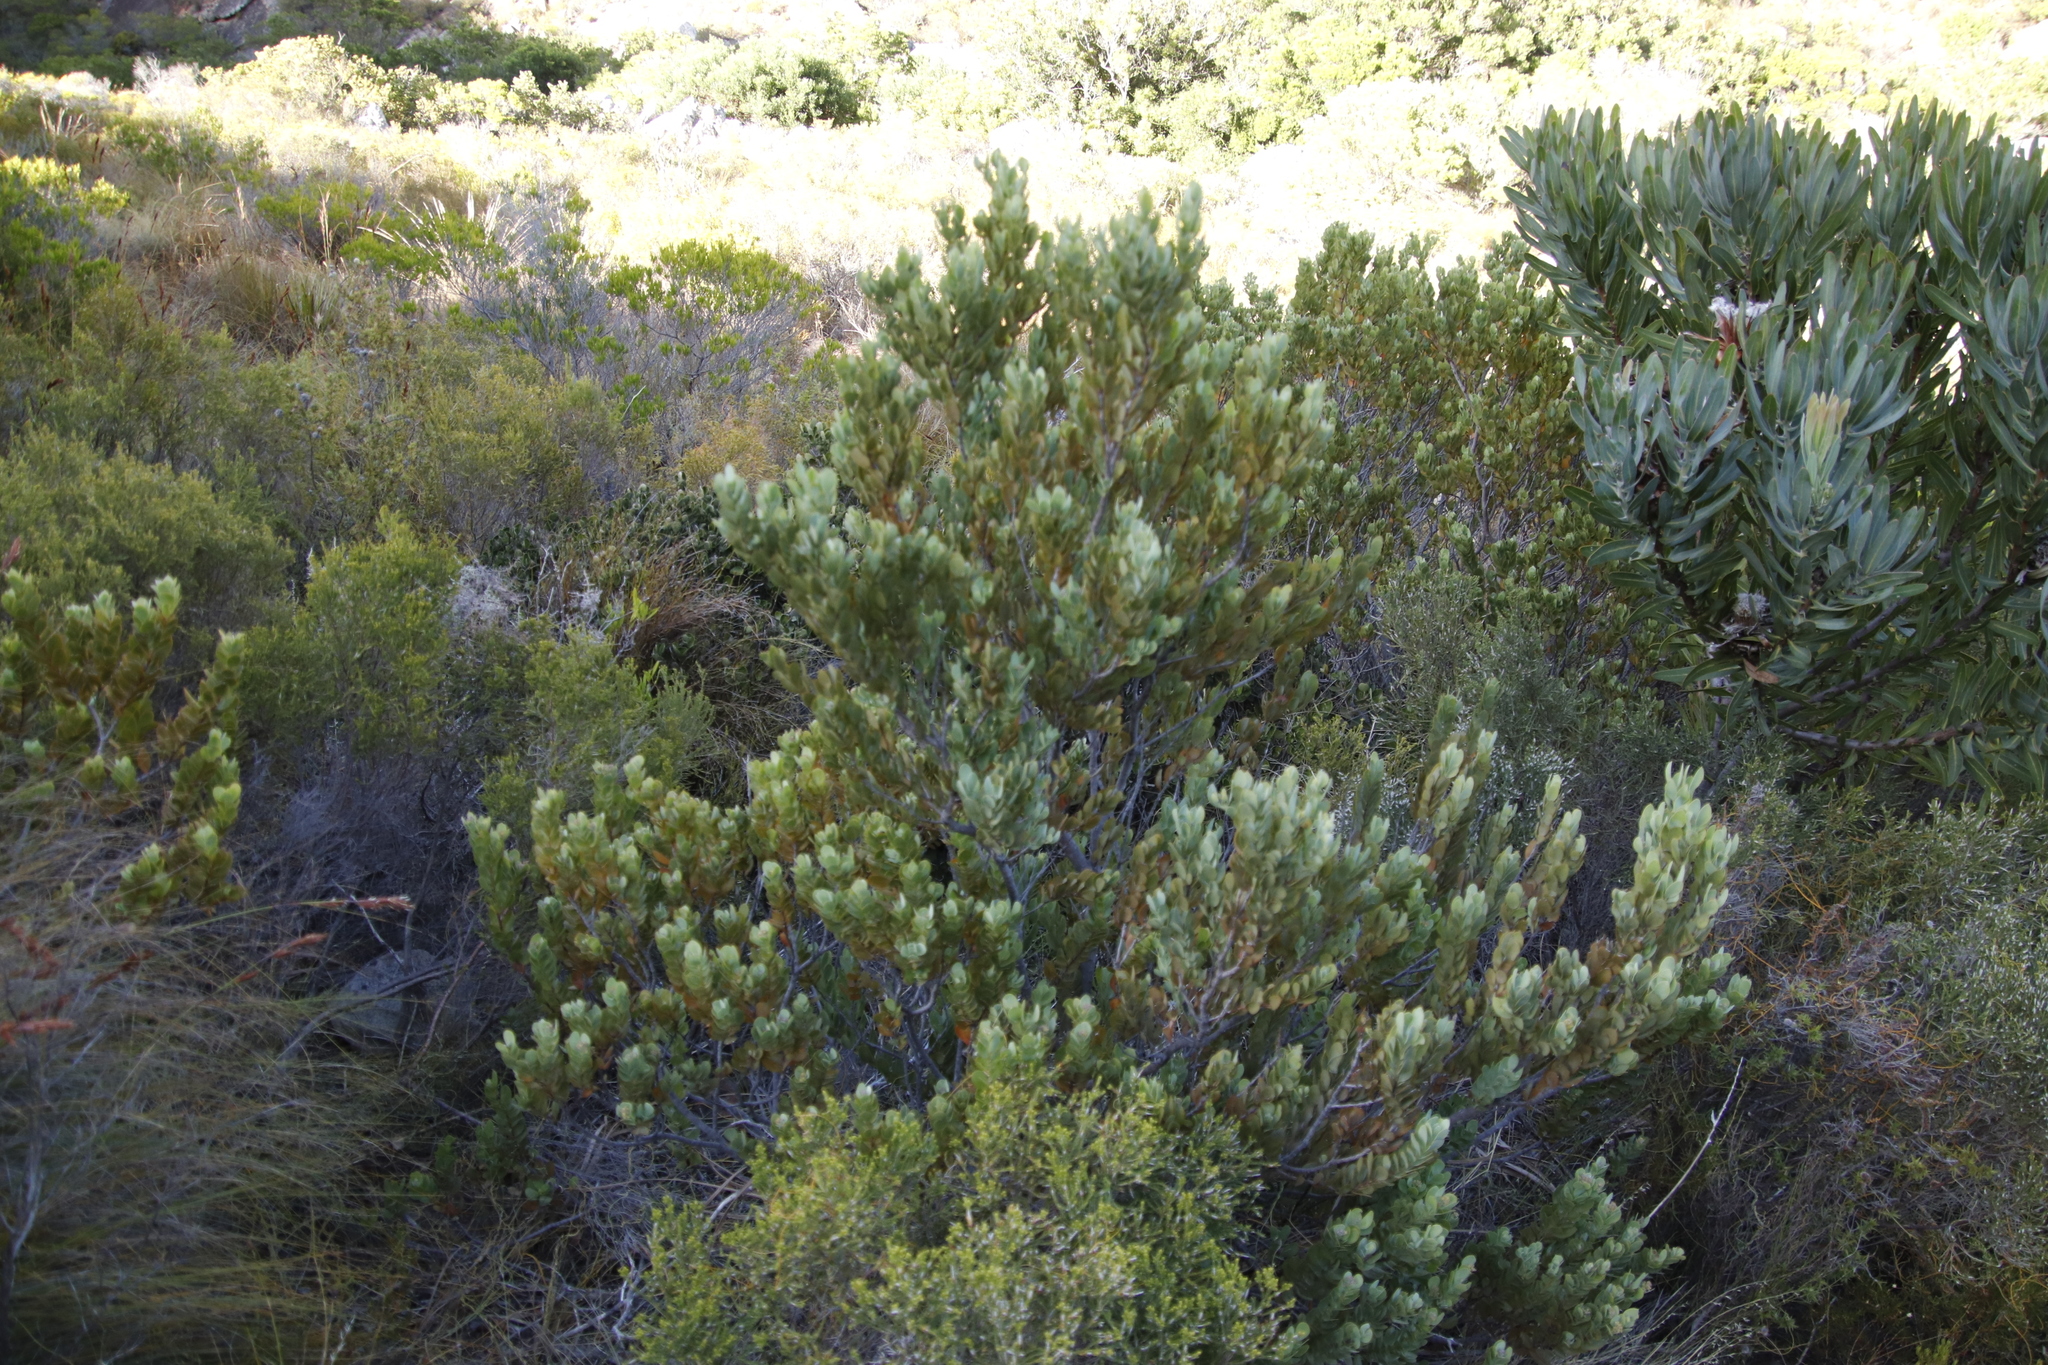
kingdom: Plantae
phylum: Tracheophyta
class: Magnoliopsida
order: Santalales
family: Santalaceae
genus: Osyris
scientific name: Osyris compressa
